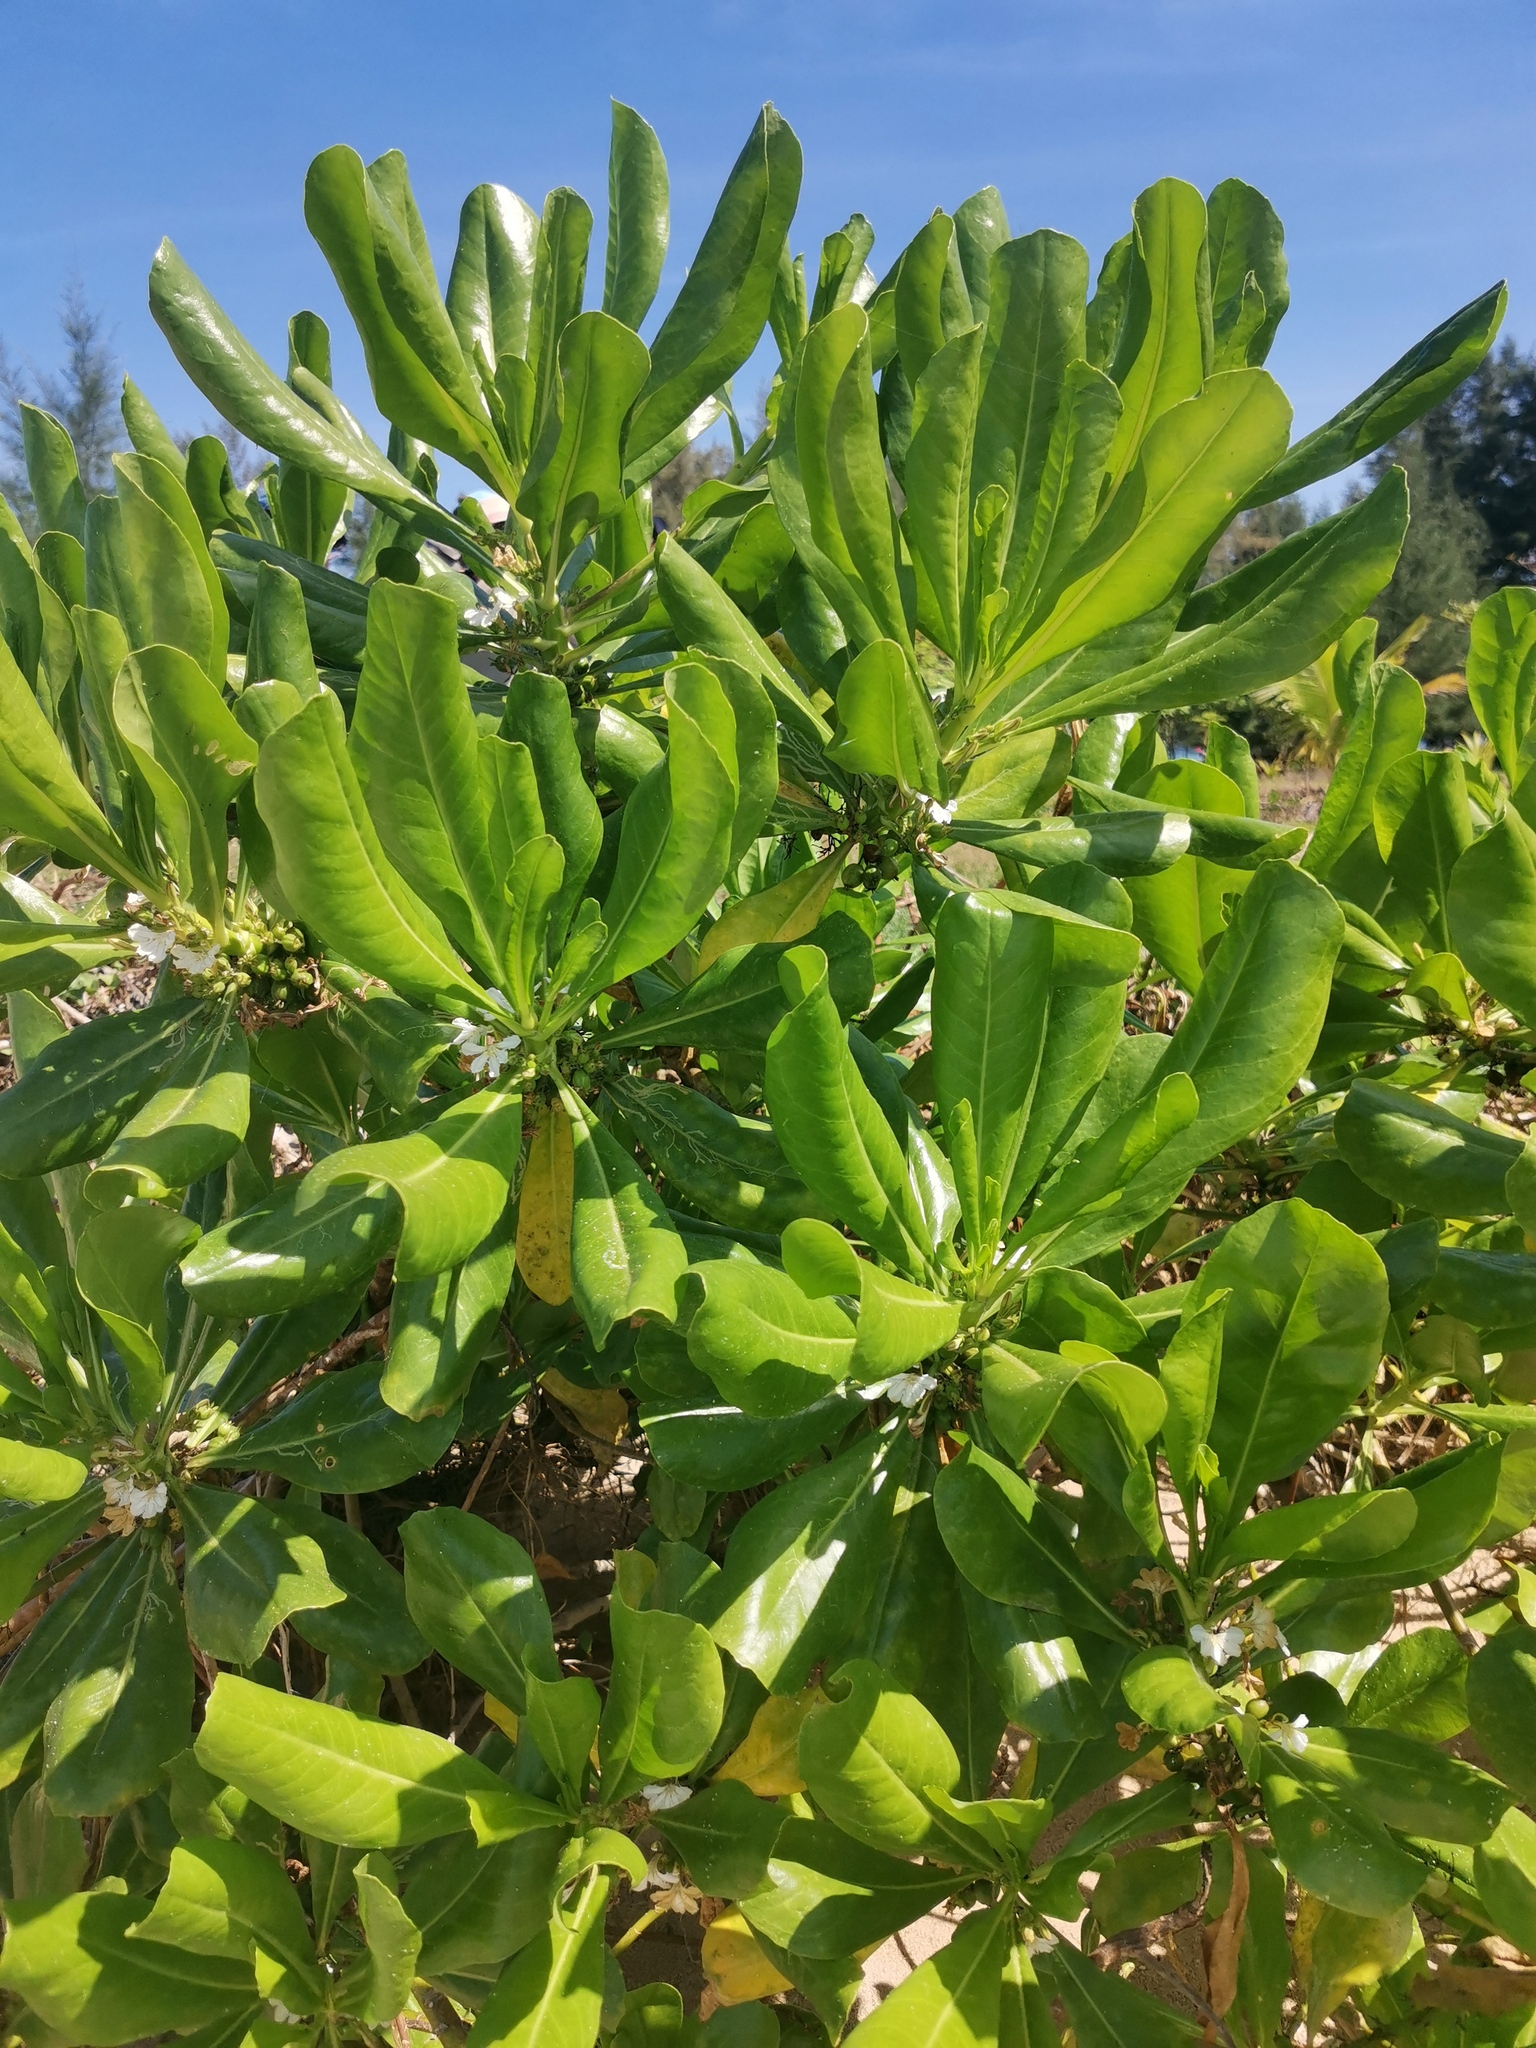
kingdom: Plantae
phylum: Tracheophyta
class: Magnoliopsida
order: Asterales
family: Goodeniaceae
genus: Scaevola
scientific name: Scaevola taccada
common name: Sea lettucetree
